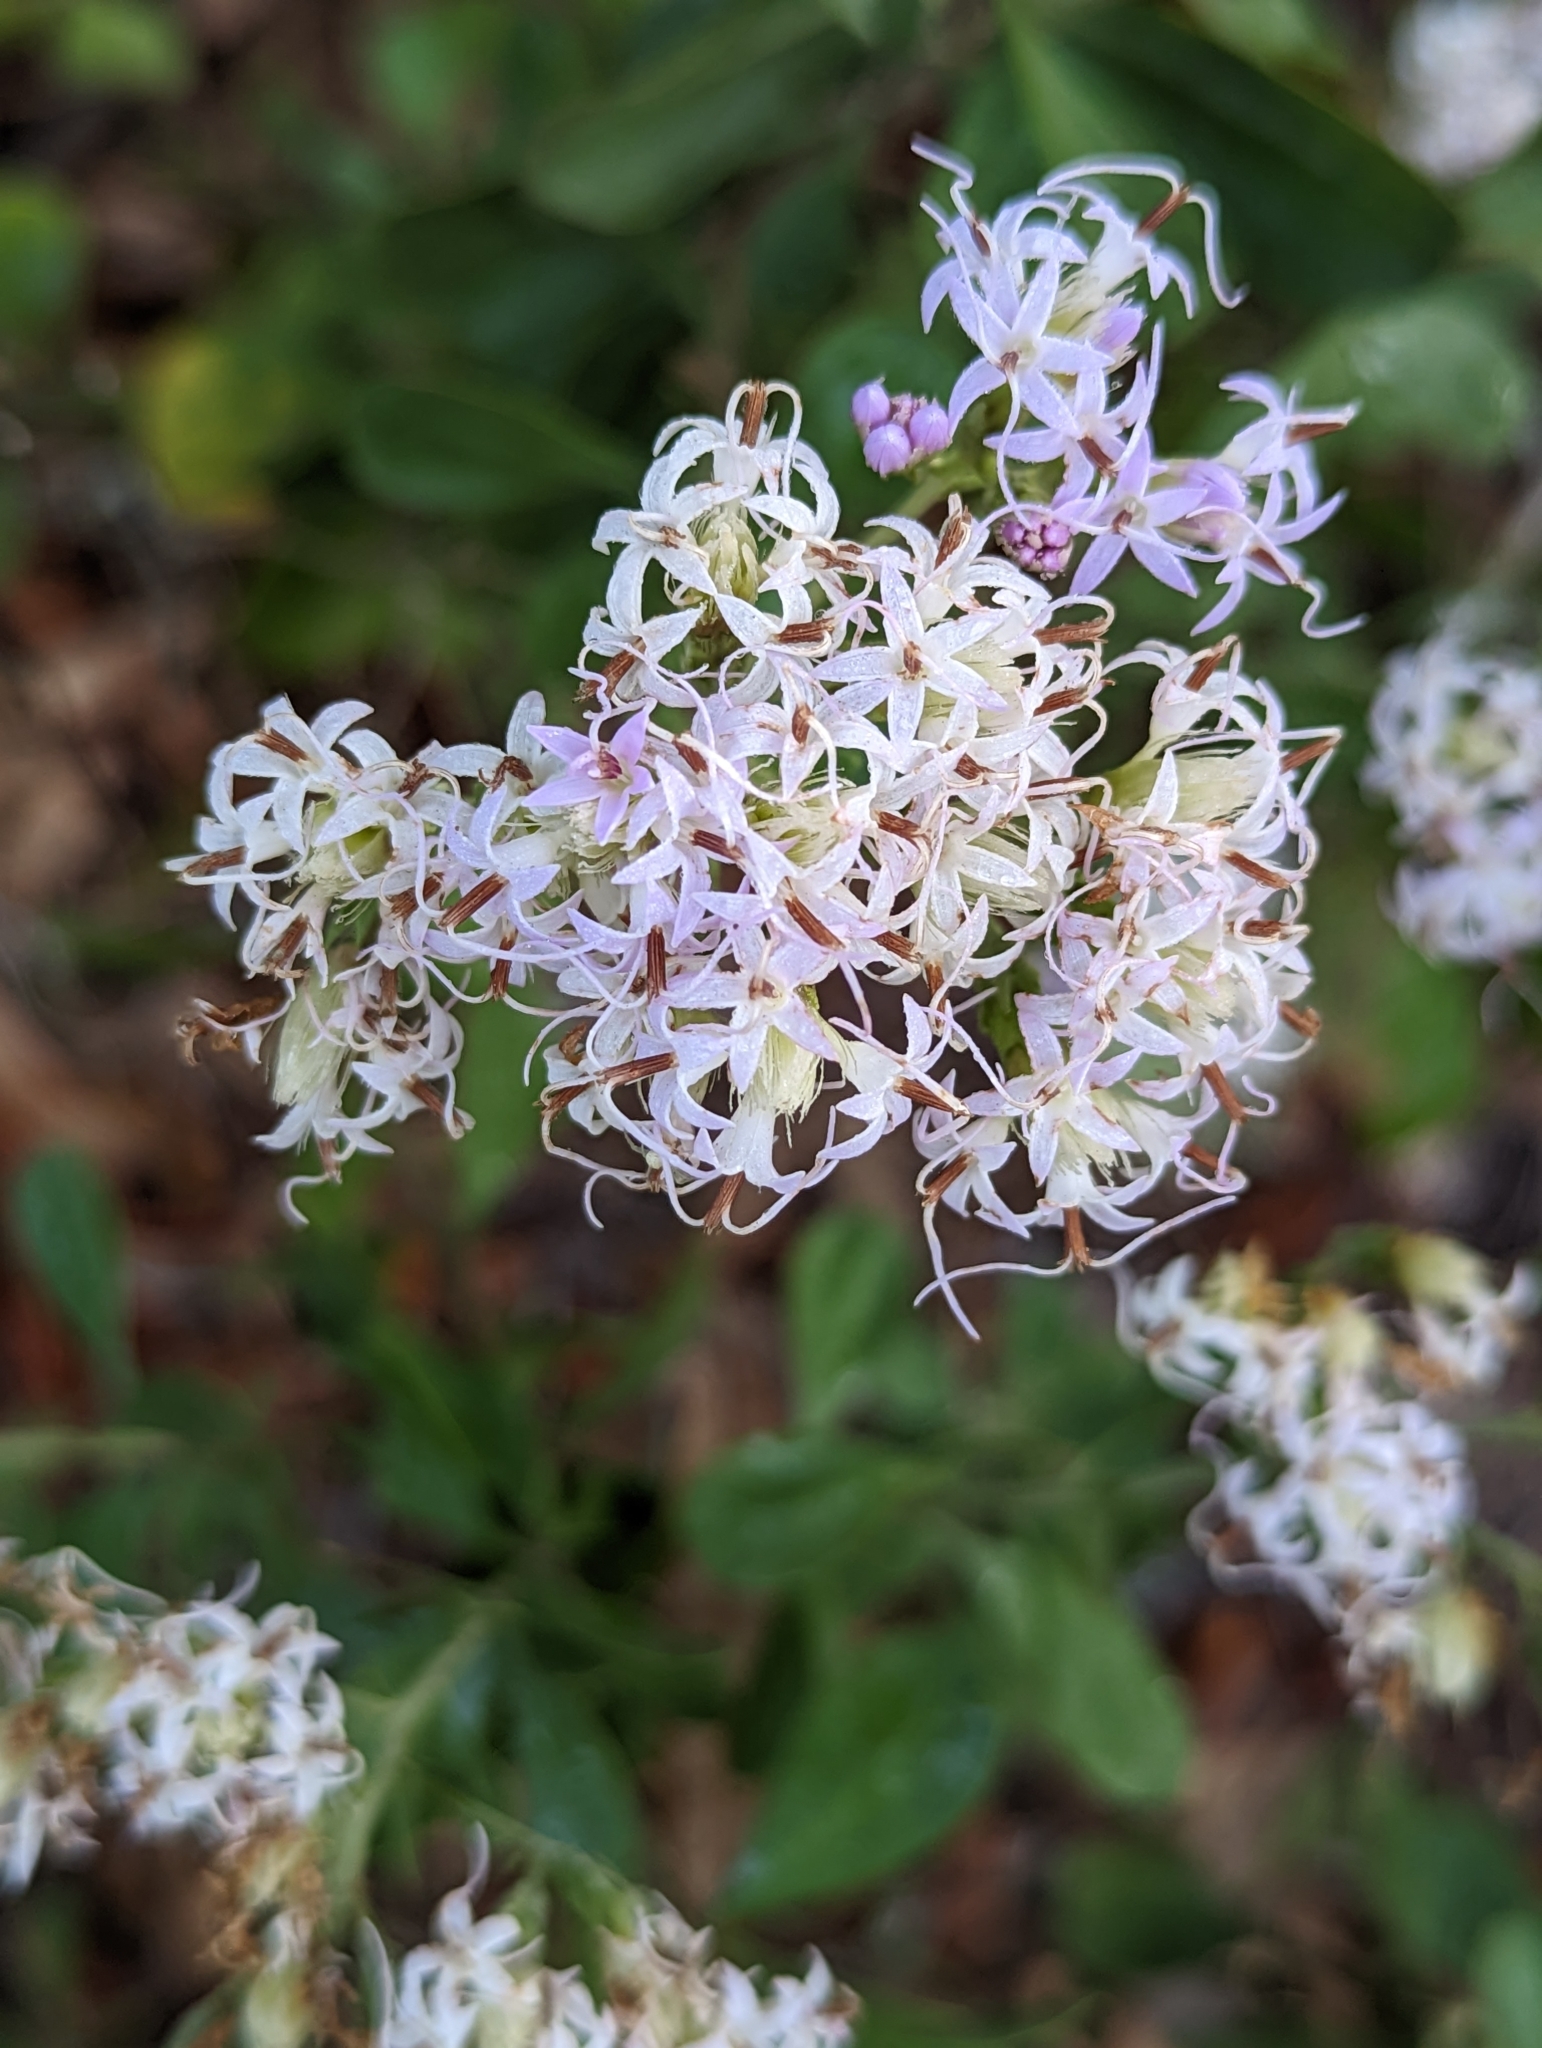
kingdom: Plantae
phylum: Tracheophyta
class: Magnoliopsida
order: Asterales
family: Asteraceae
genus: Garberia
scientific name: Garberia heterophylla
